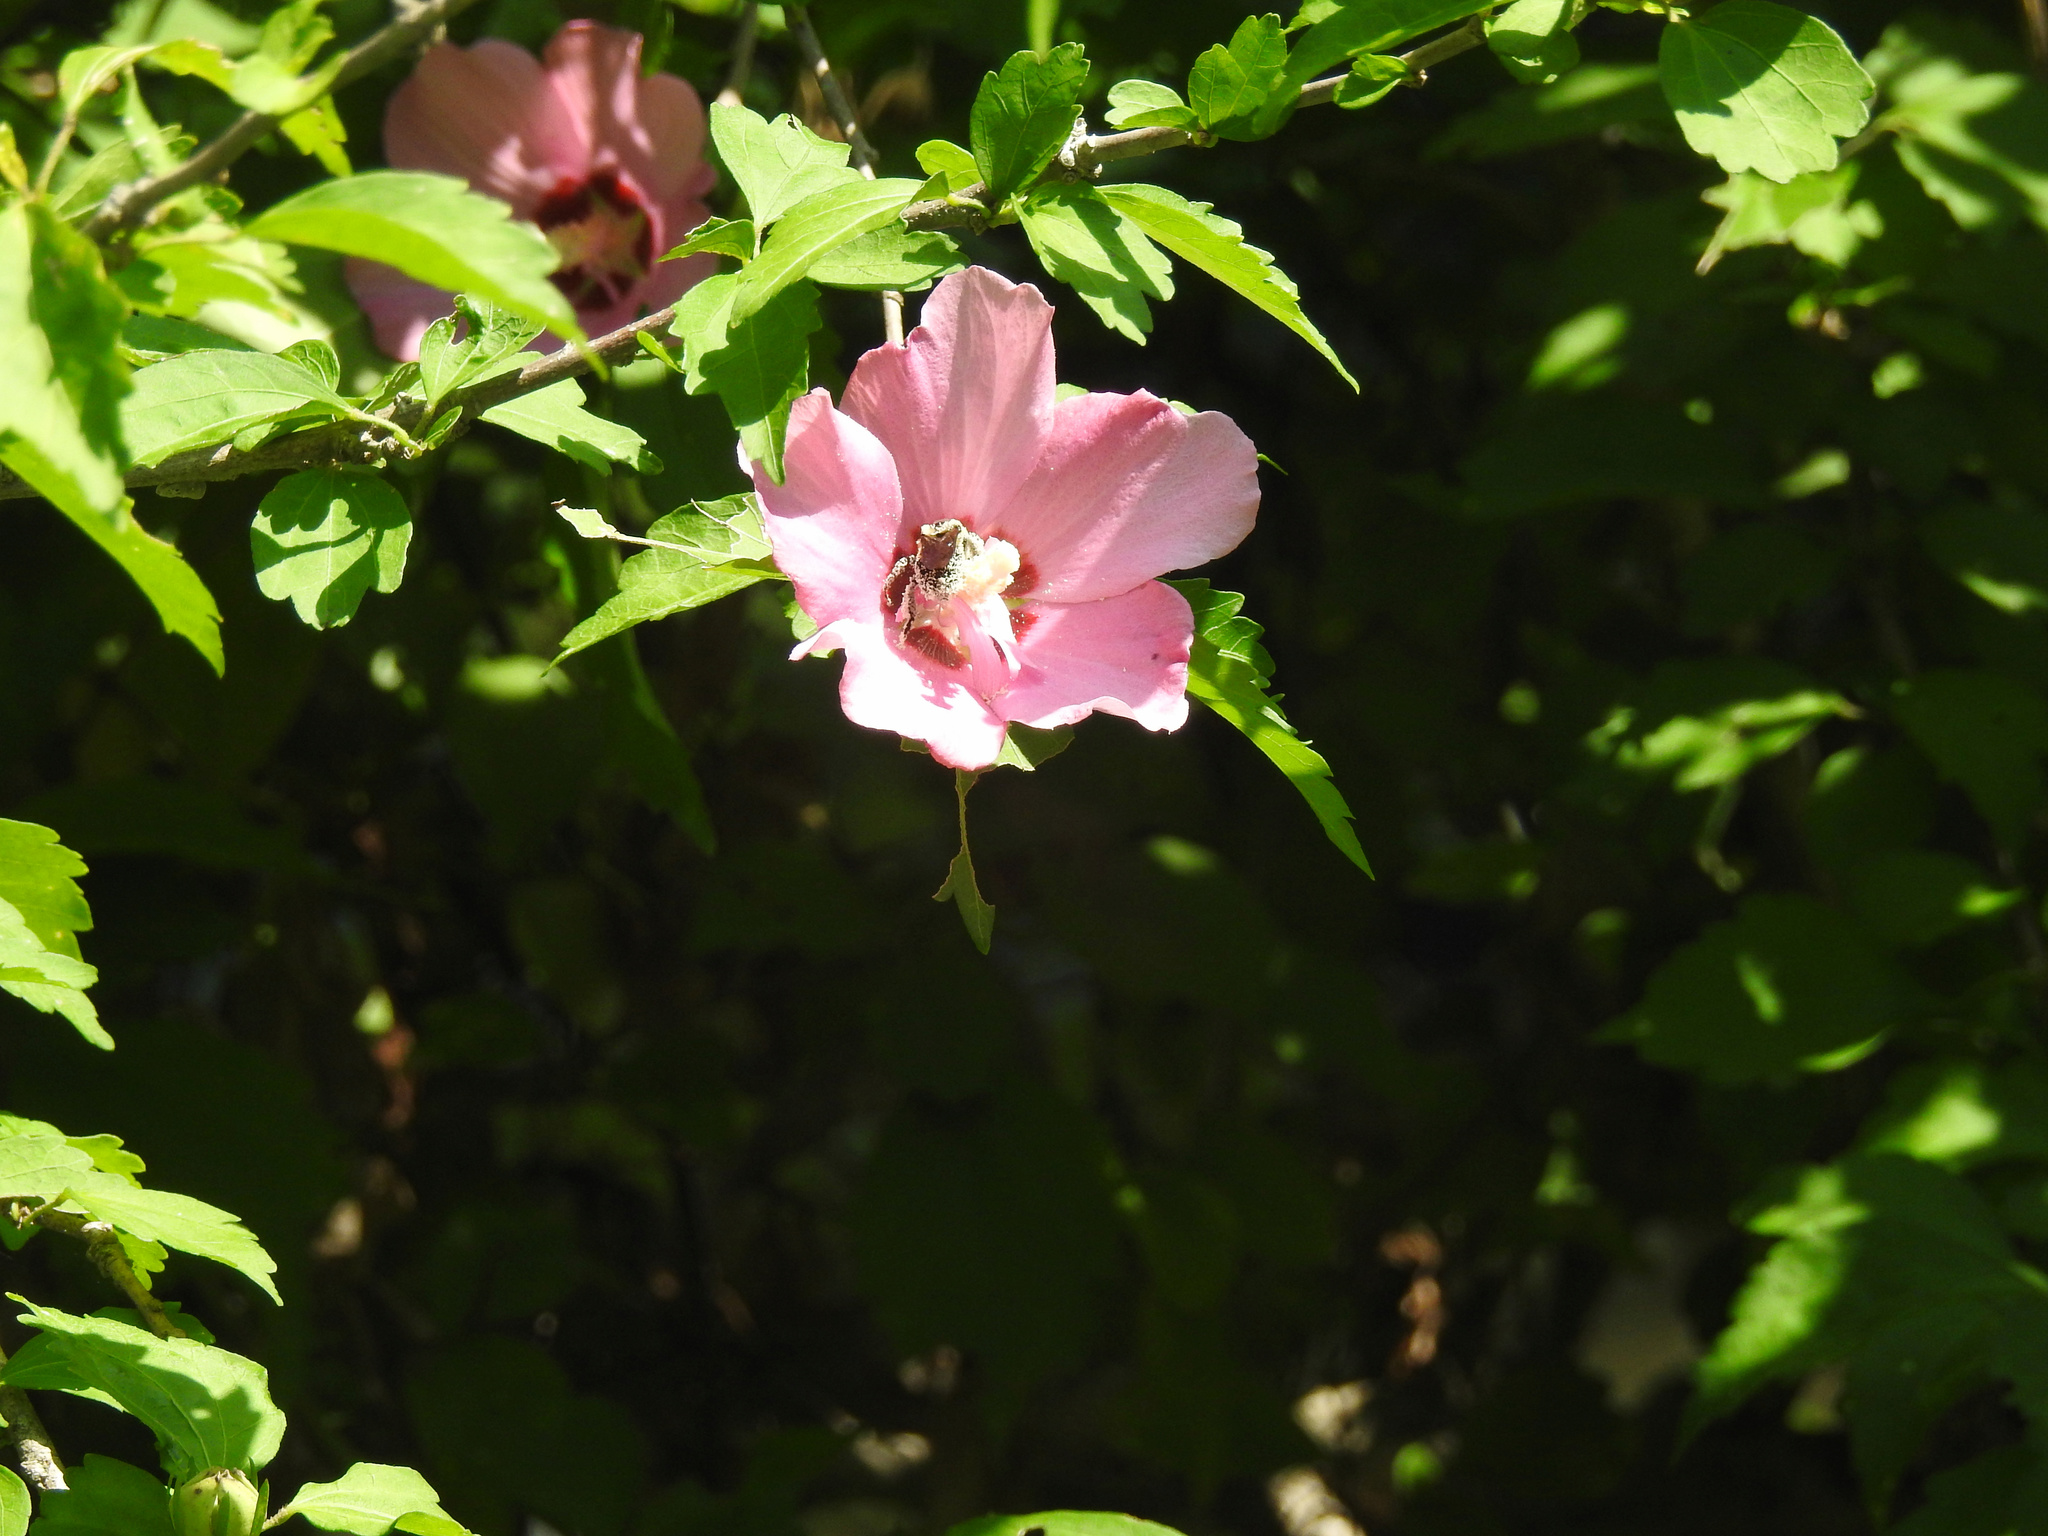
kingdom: Plantae
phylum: Tracheophyta
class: Magnoliopsida
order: Malvales
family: Malvaceae
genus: Hibiscus
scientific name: Hibiscus syriacus
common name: Syrian ketmia
